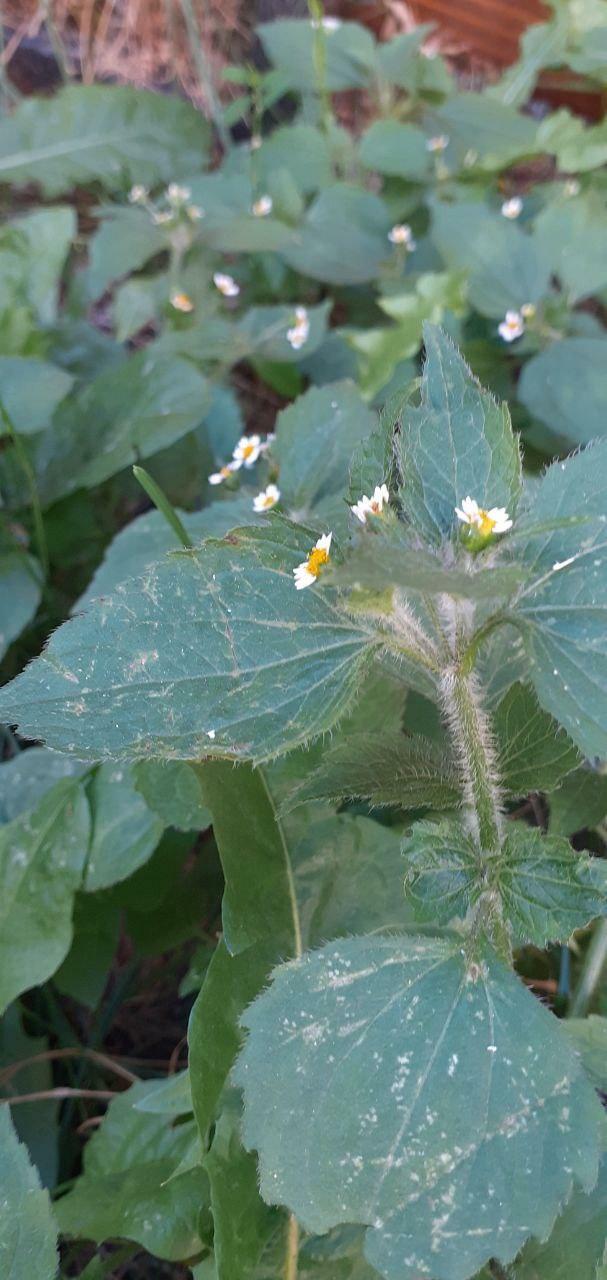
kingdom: Plantae
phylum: Tracheophyta
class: Magnoliopsida
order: Asterales
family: Asteraceae
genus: Galinsoga
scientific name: Galinsoga quadriradiata
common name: Shaggy soldier
